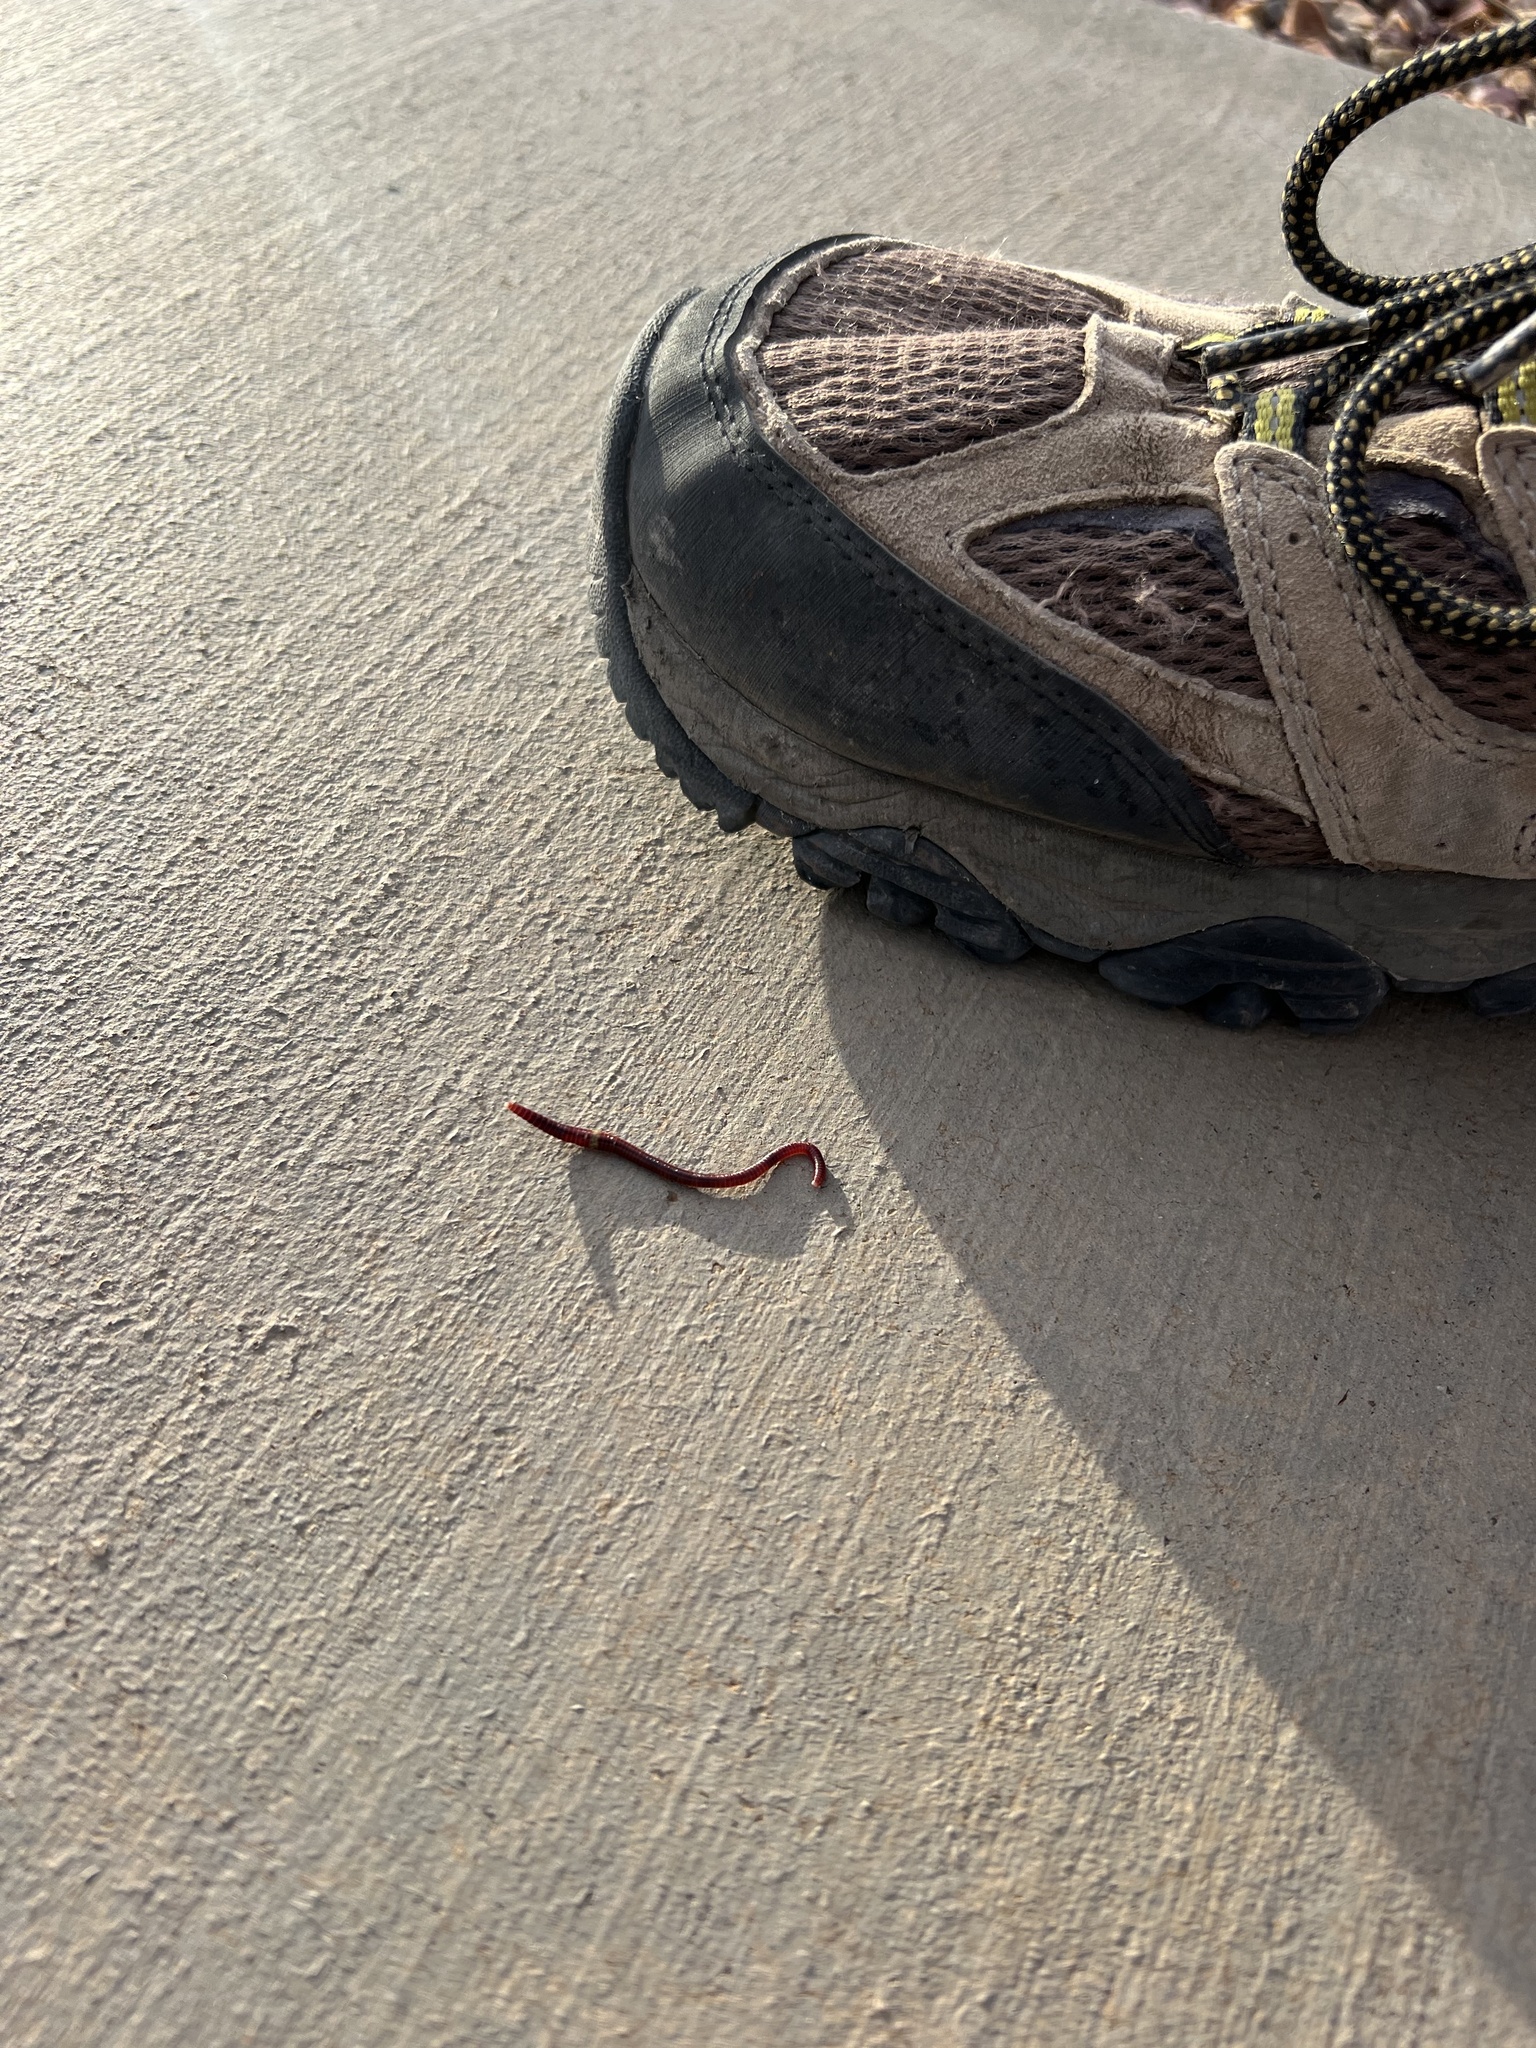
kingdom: Animalia
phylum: Annelida
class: Clitellata
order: Crassiclitellata
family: Lumbricidae
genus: Eisenia
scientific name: Eisenia fetida
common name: Red wiggler
